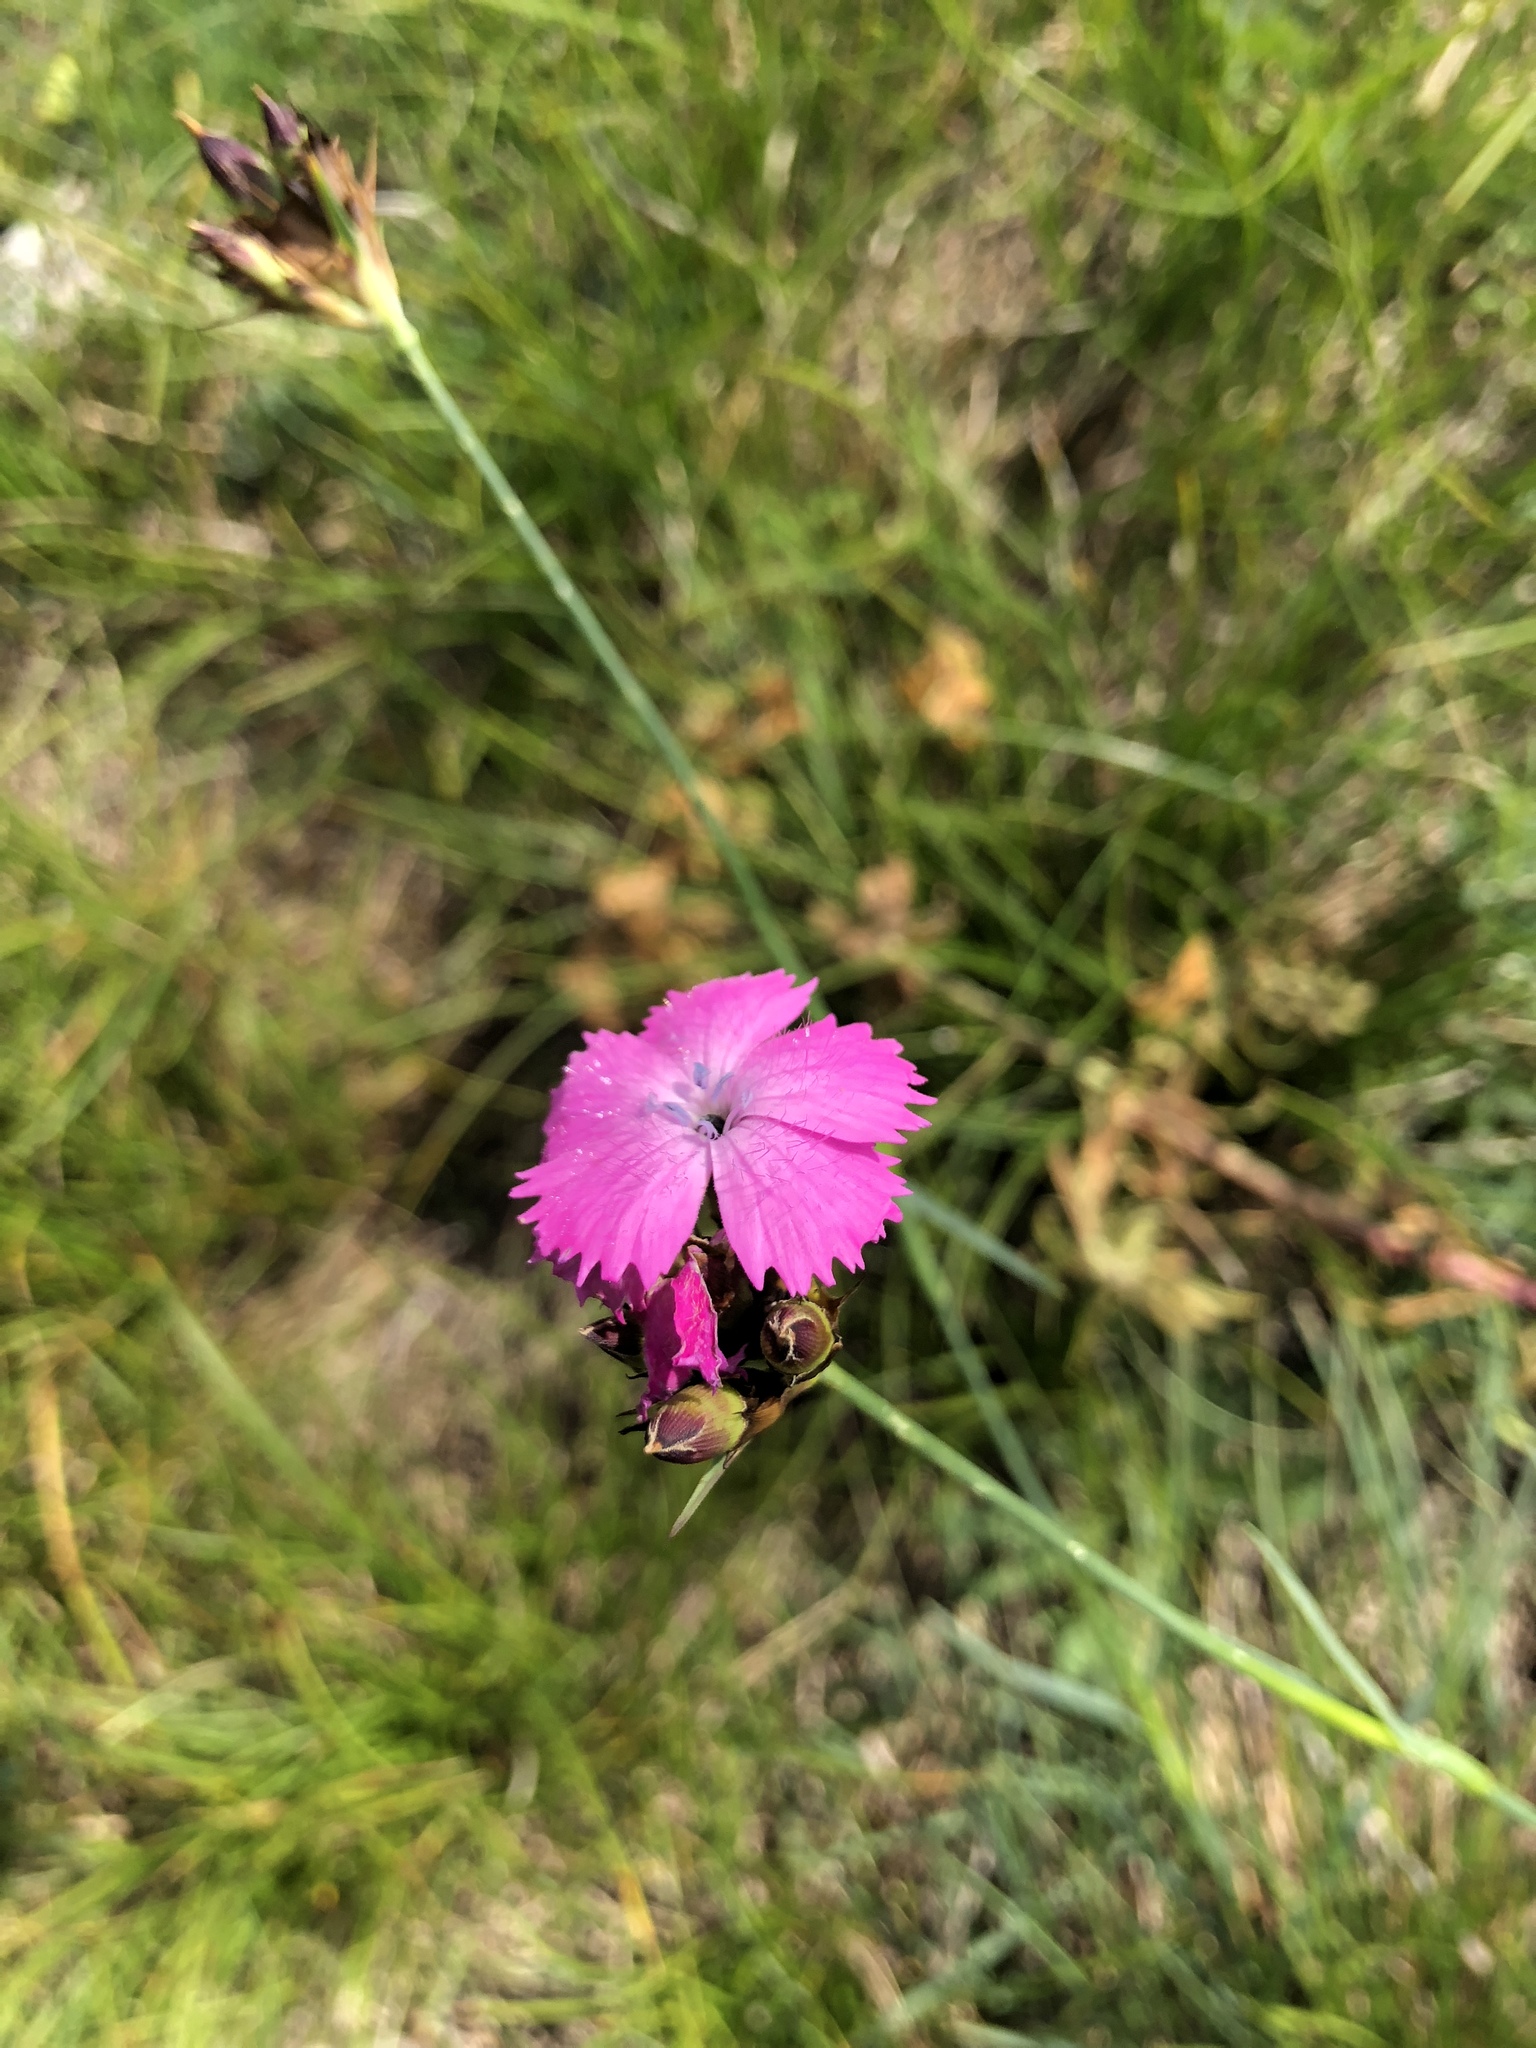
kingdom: Plantae
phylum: Tracheophyta
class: Magnoliopsida
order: Caryophyllales
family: Caryophyllaceae
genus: Dianthus
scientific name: Dianthus carthusianorum
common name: Carthusian pink
